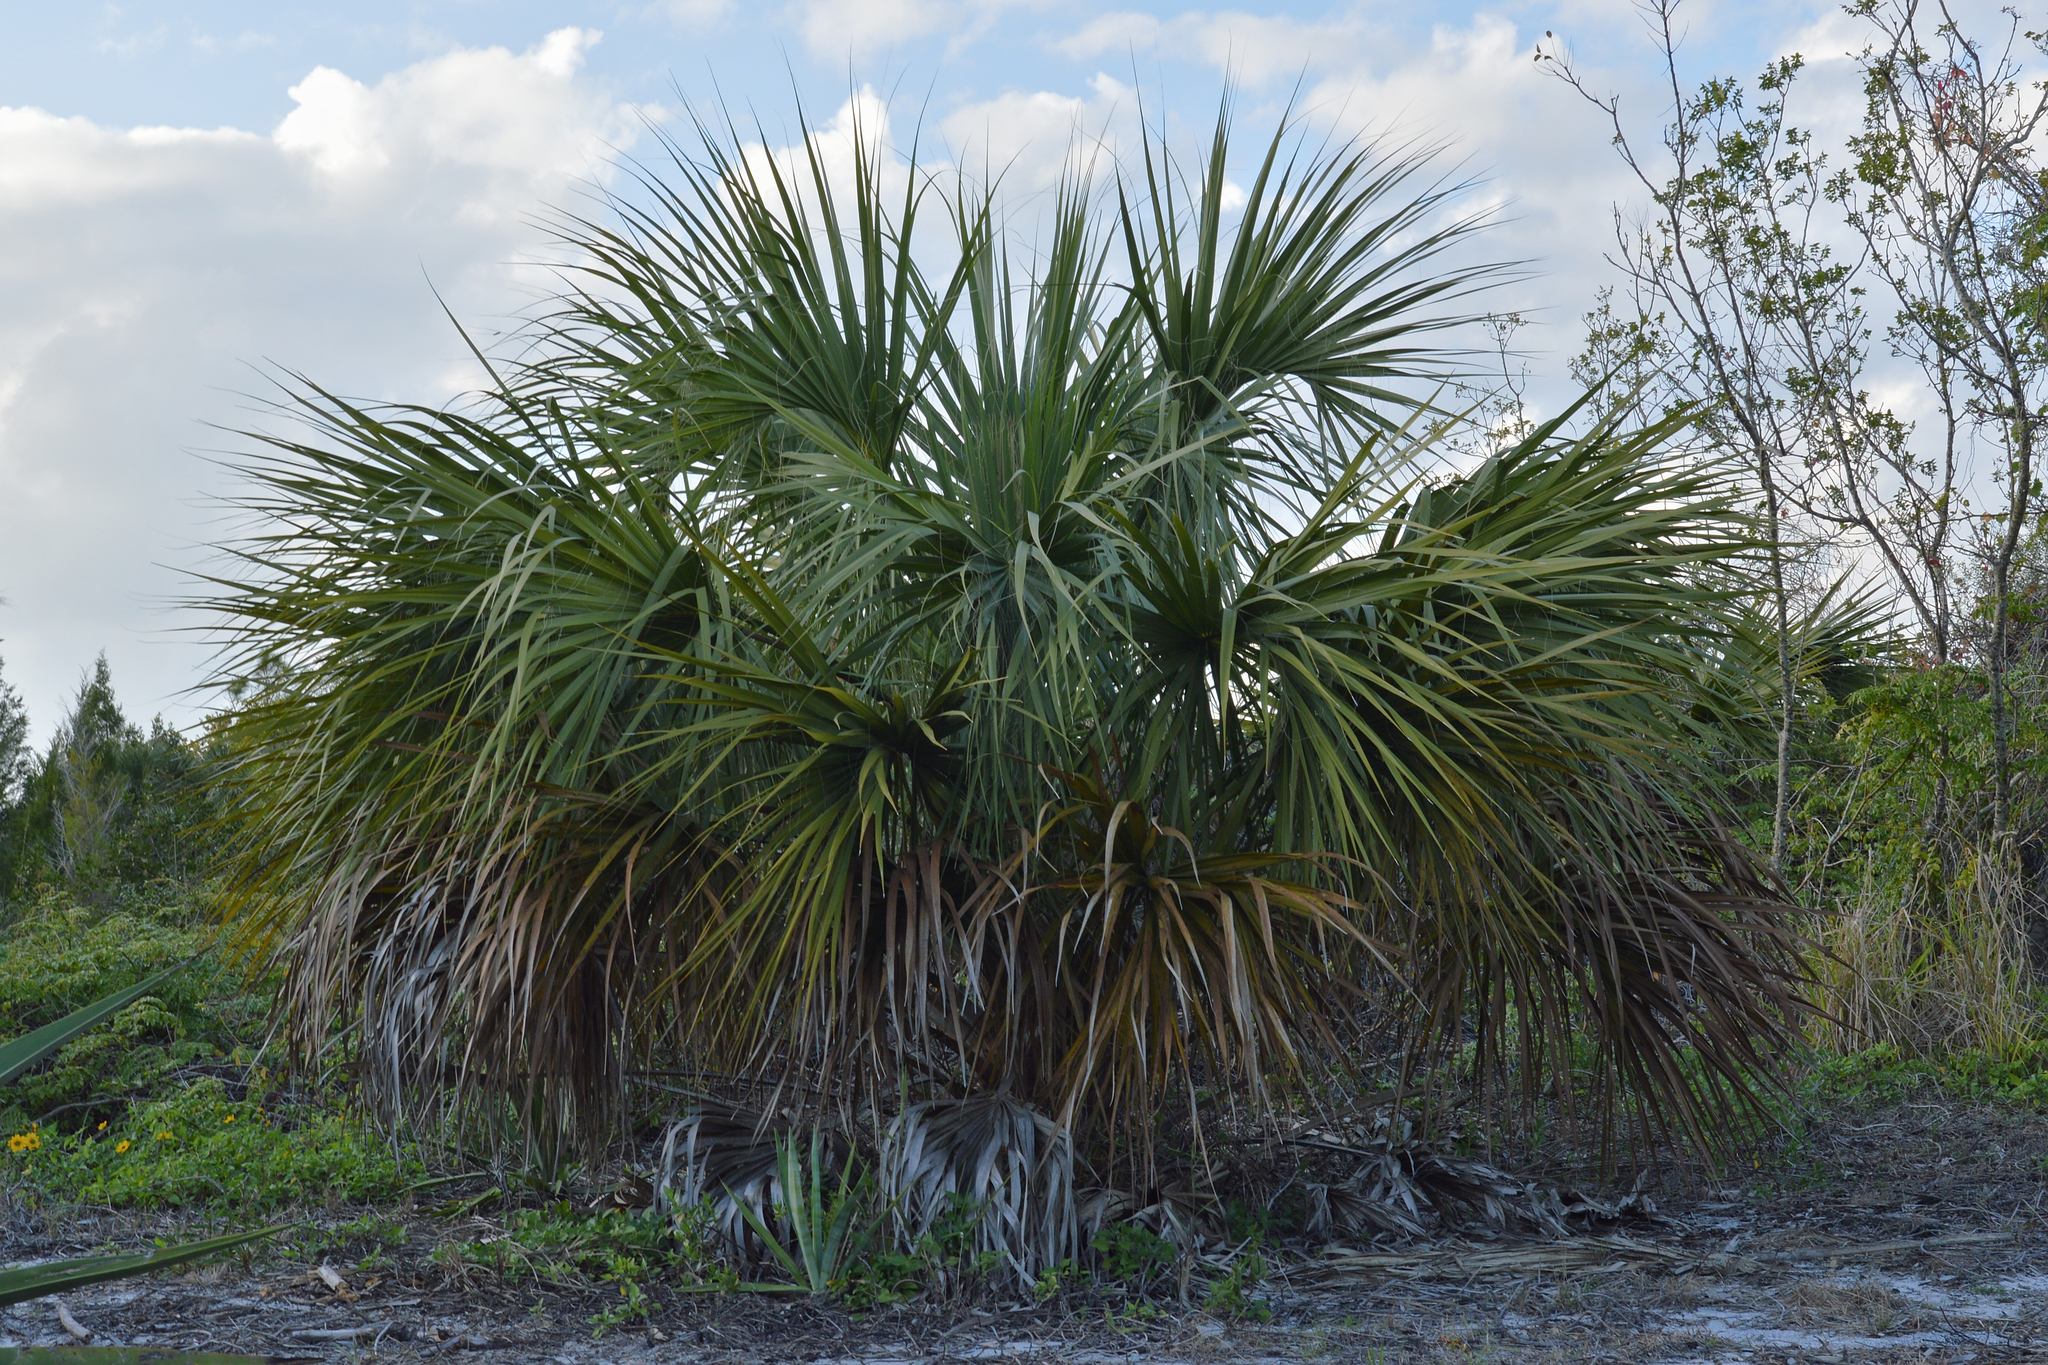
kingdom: Plantae
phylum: Tracheophyta
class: Liliopsida
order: Arecales
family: Arecaceae
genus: Sabal
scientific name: Sabal palmetto
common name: Blue palmetto
